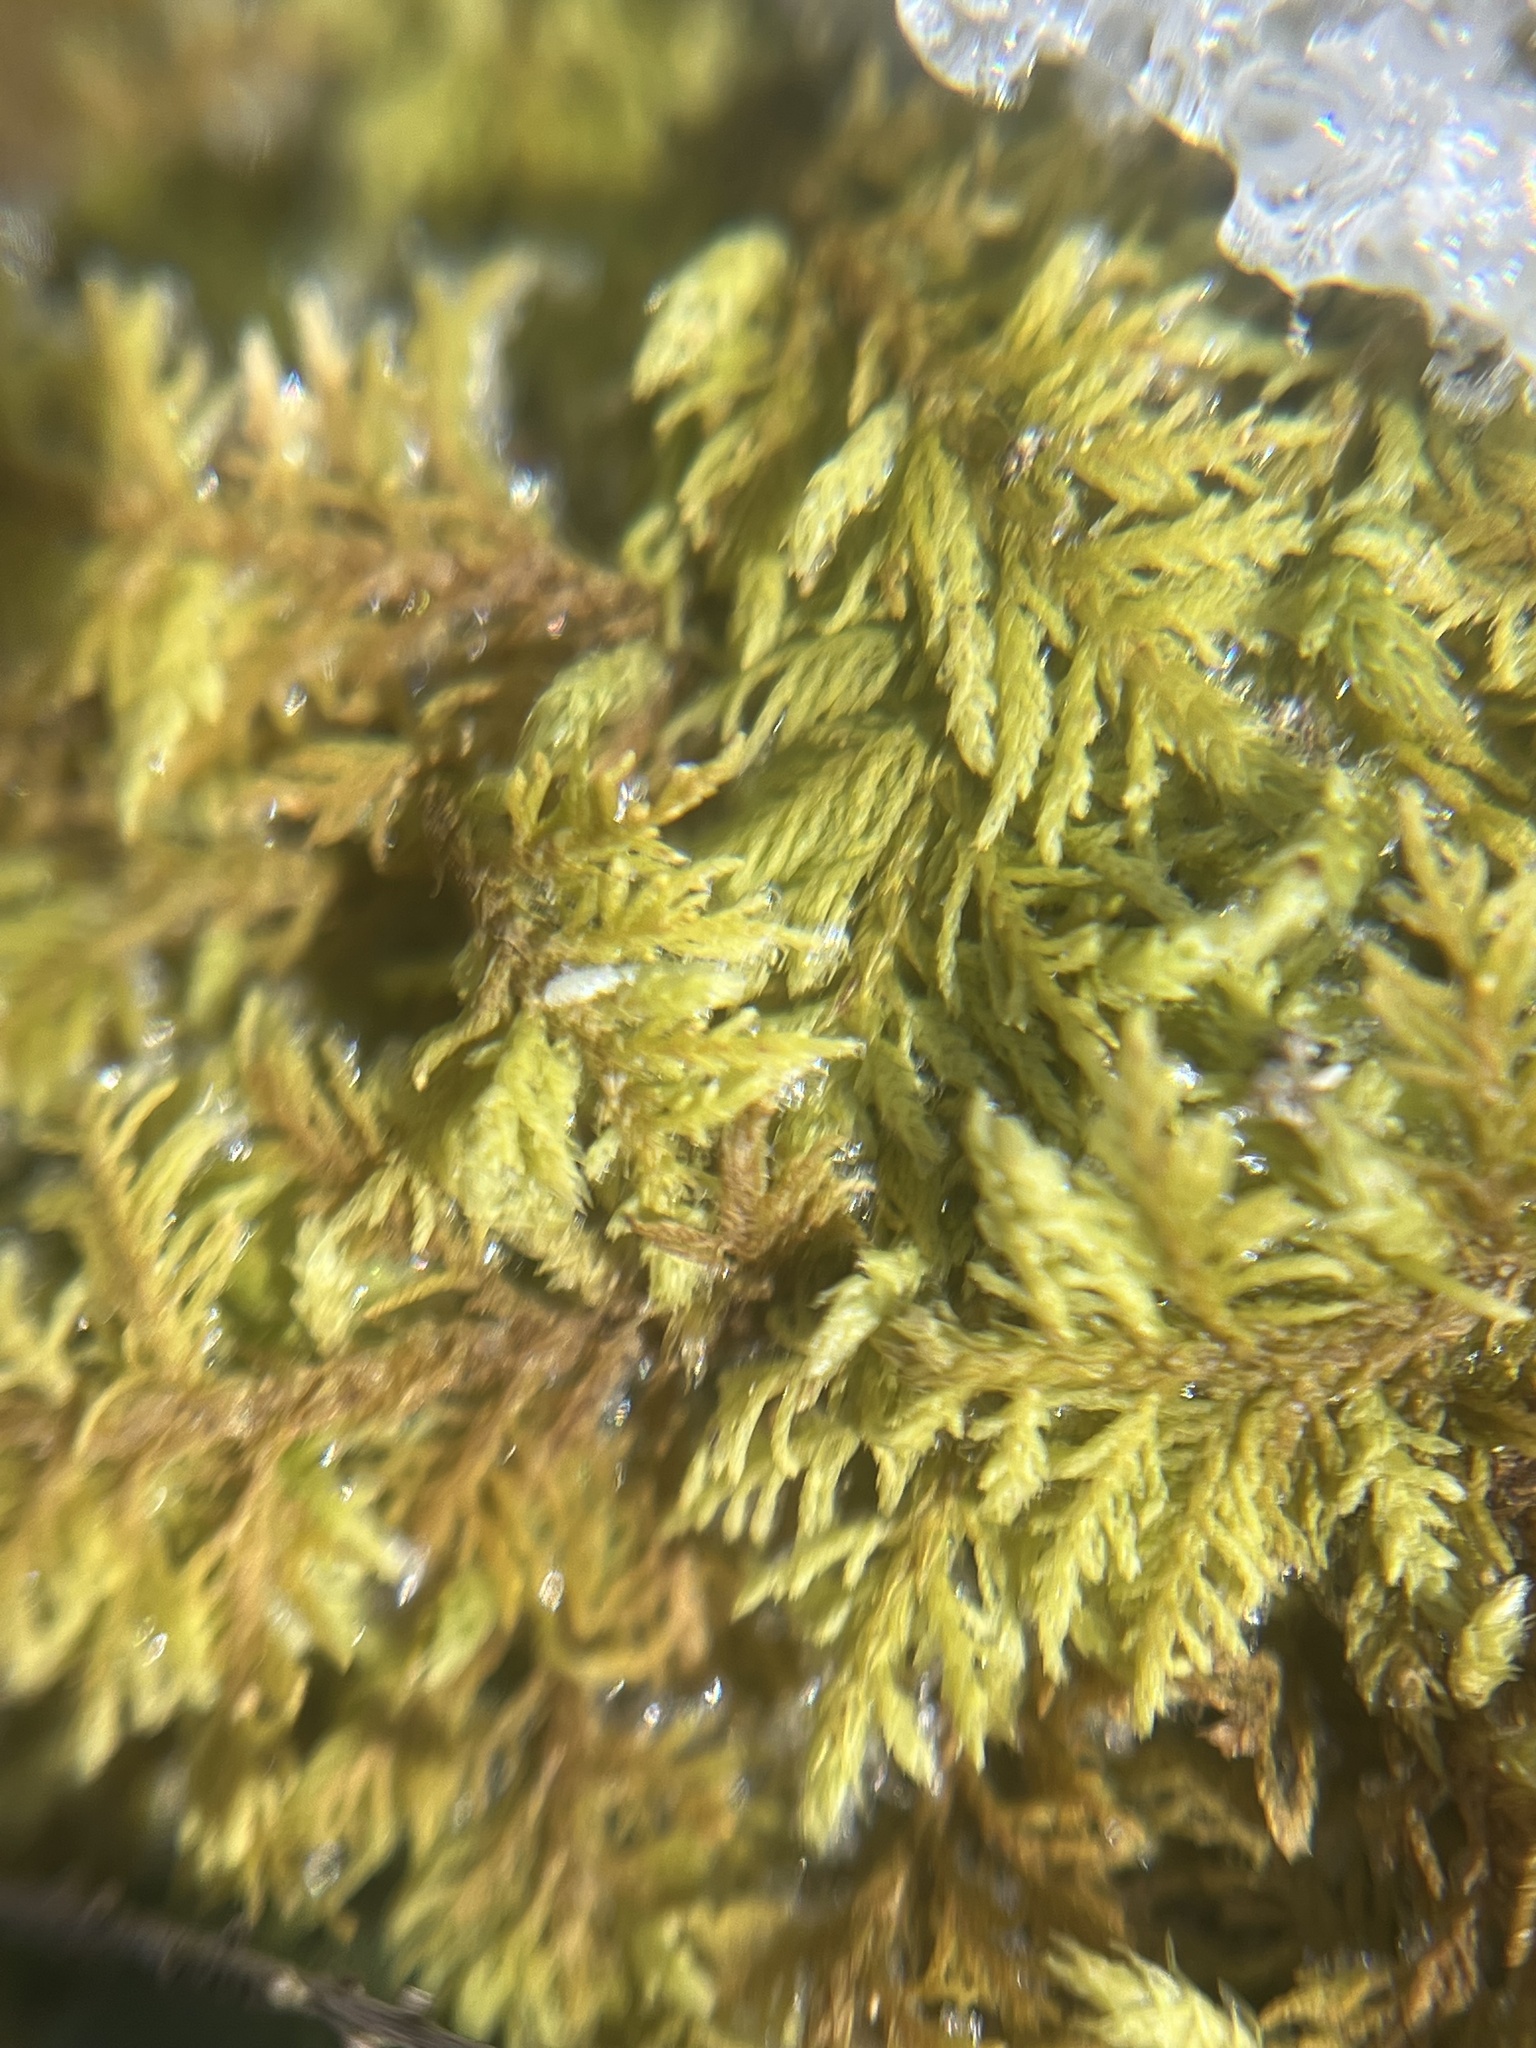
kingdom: Plantae
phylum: Bryophyta
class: Bryopsida
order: Hypnales
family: Thuidiaceae
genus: Thuidium
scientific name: Thuidium delicatulum
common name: Delicate fern moss
